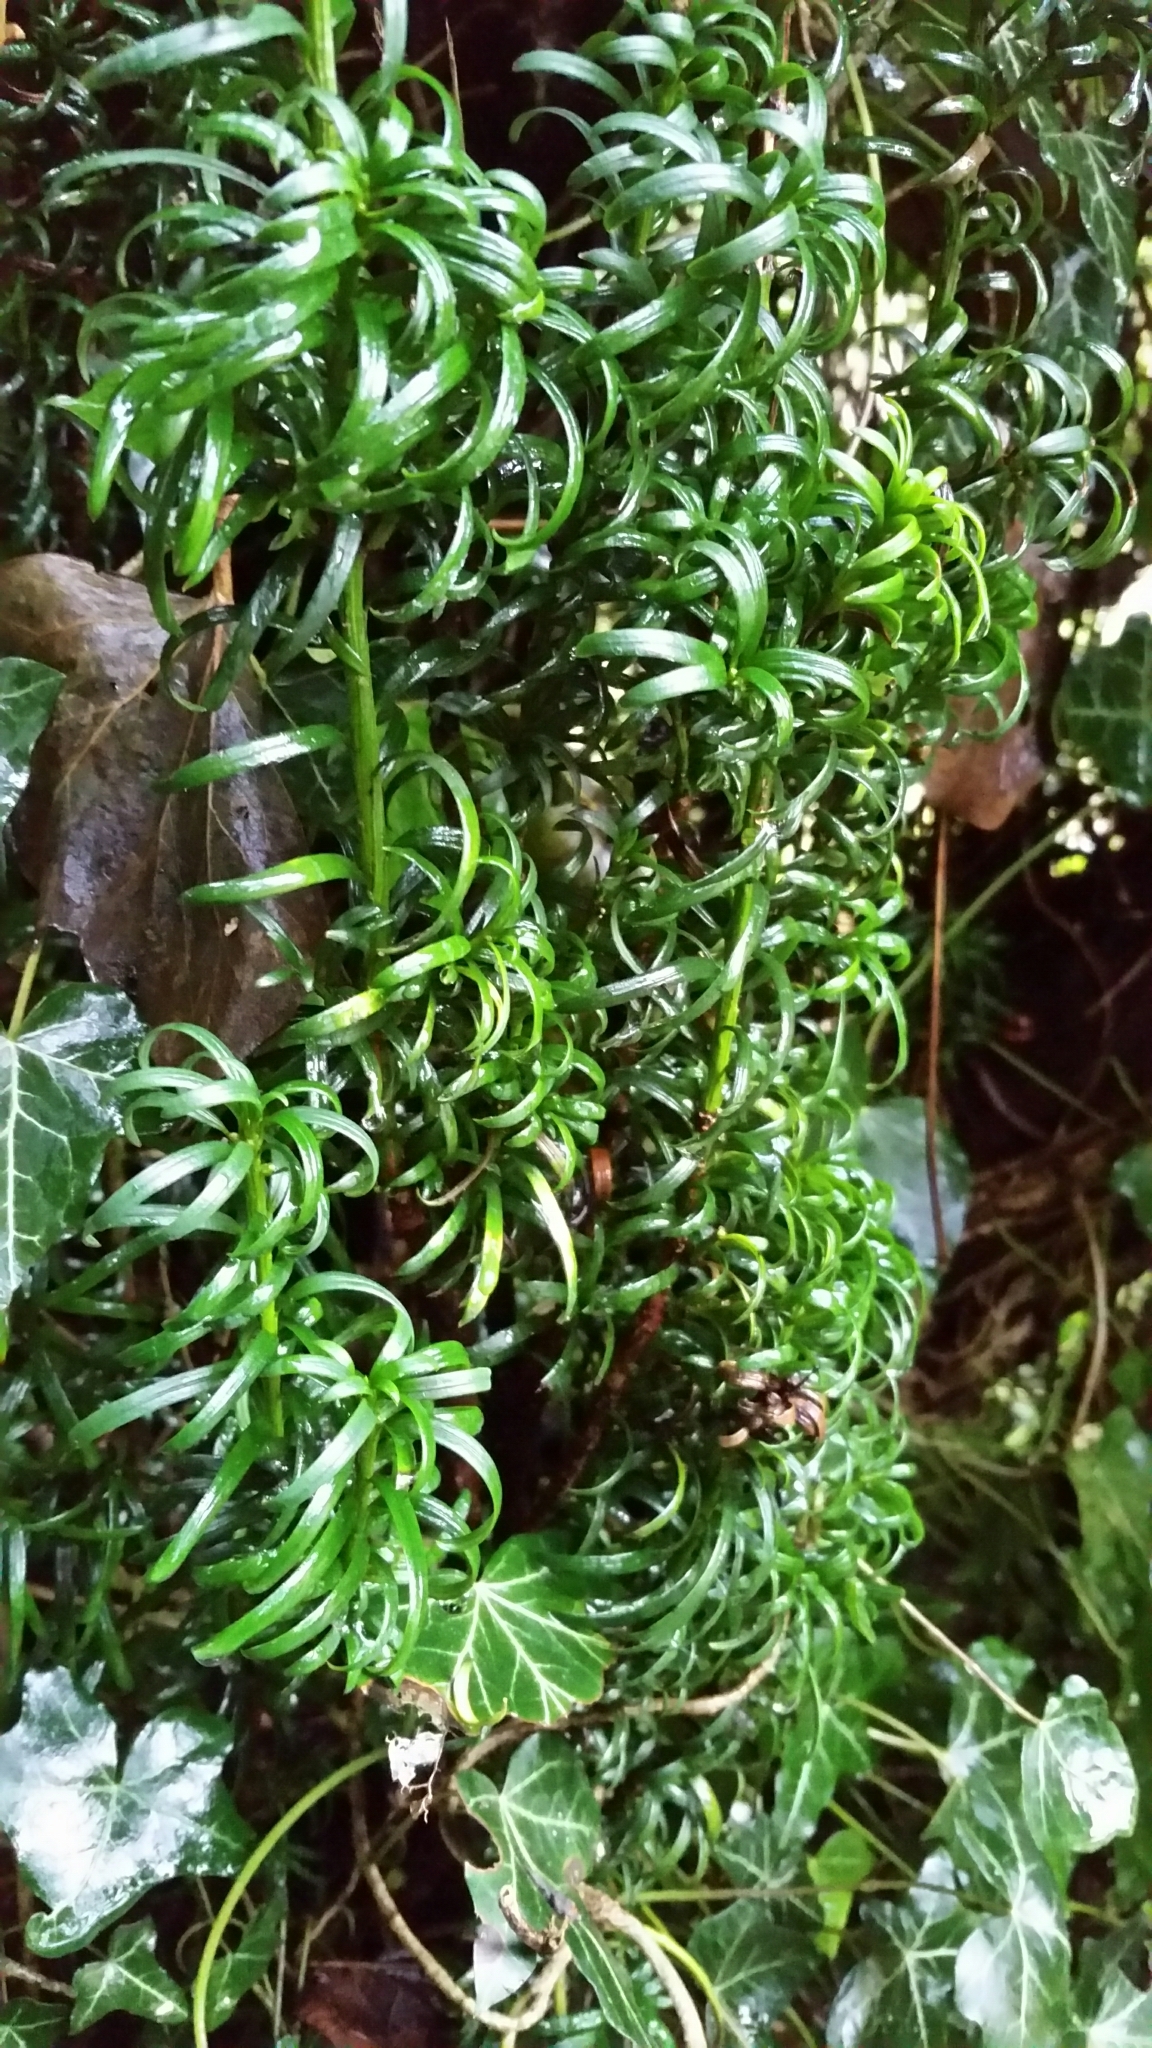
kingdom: Plantae
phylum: Tracheophyta
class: Pinopsida
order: Pinales
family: Taxaceae
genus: Taxus
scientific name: Taxus baccata
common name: Yew
